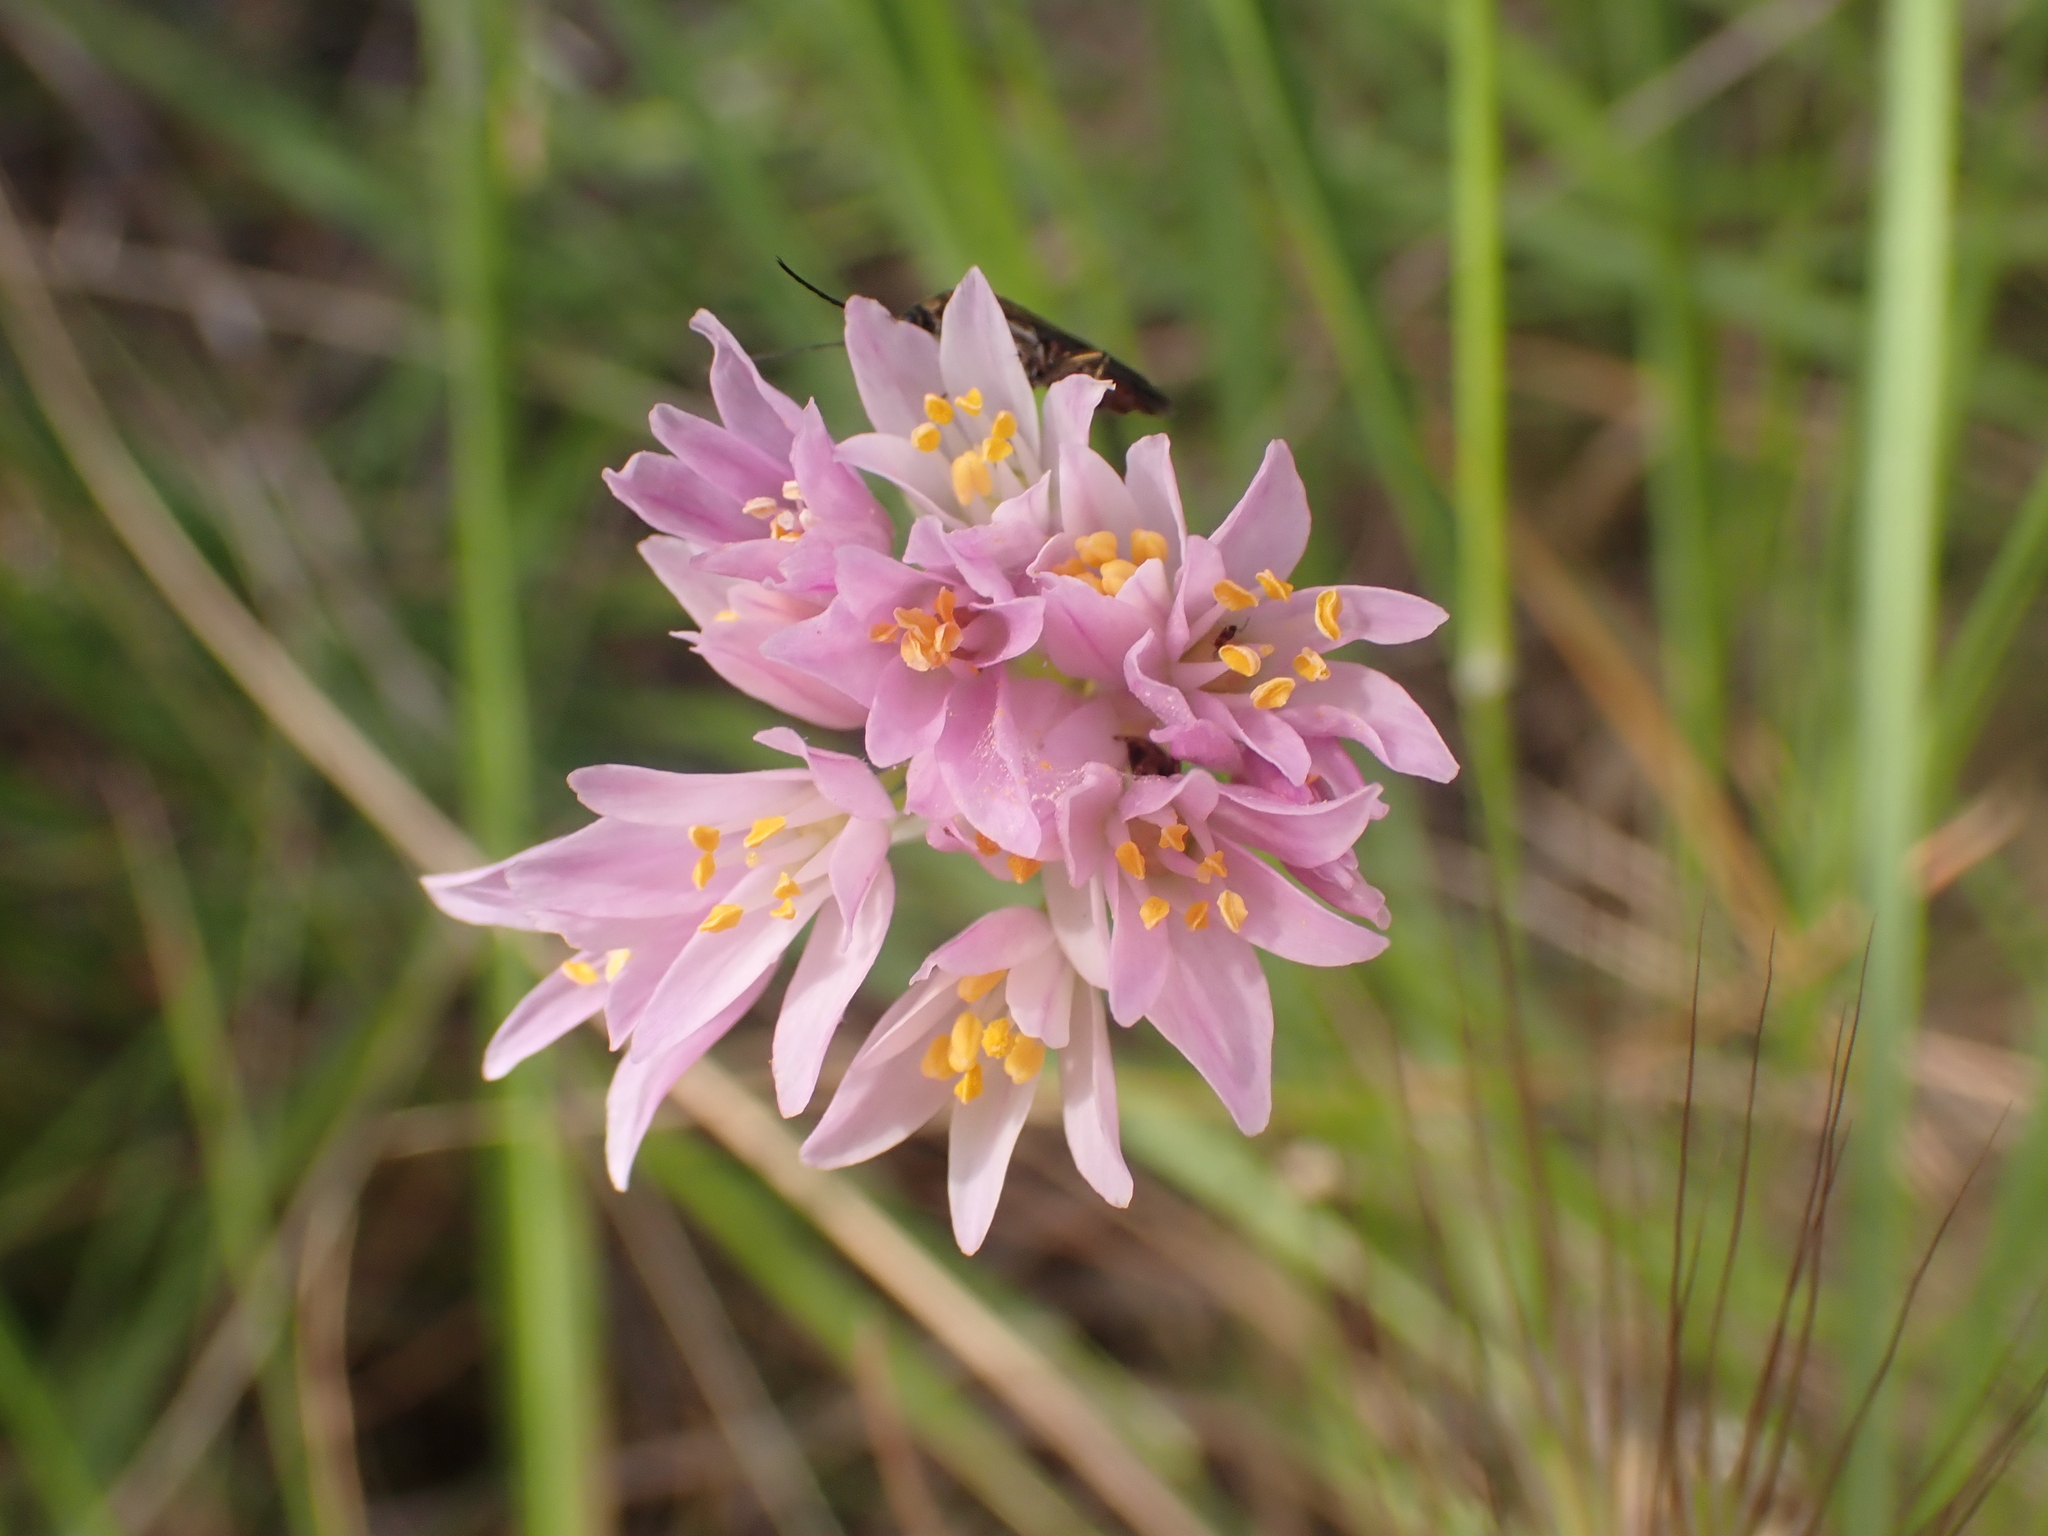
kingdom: Plantae
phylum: Tracheophyta
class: Liliopsida
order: Asparagales
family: Amaryllidaceae
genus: Allium
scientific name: Allium roseum
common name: Rosy garlic
